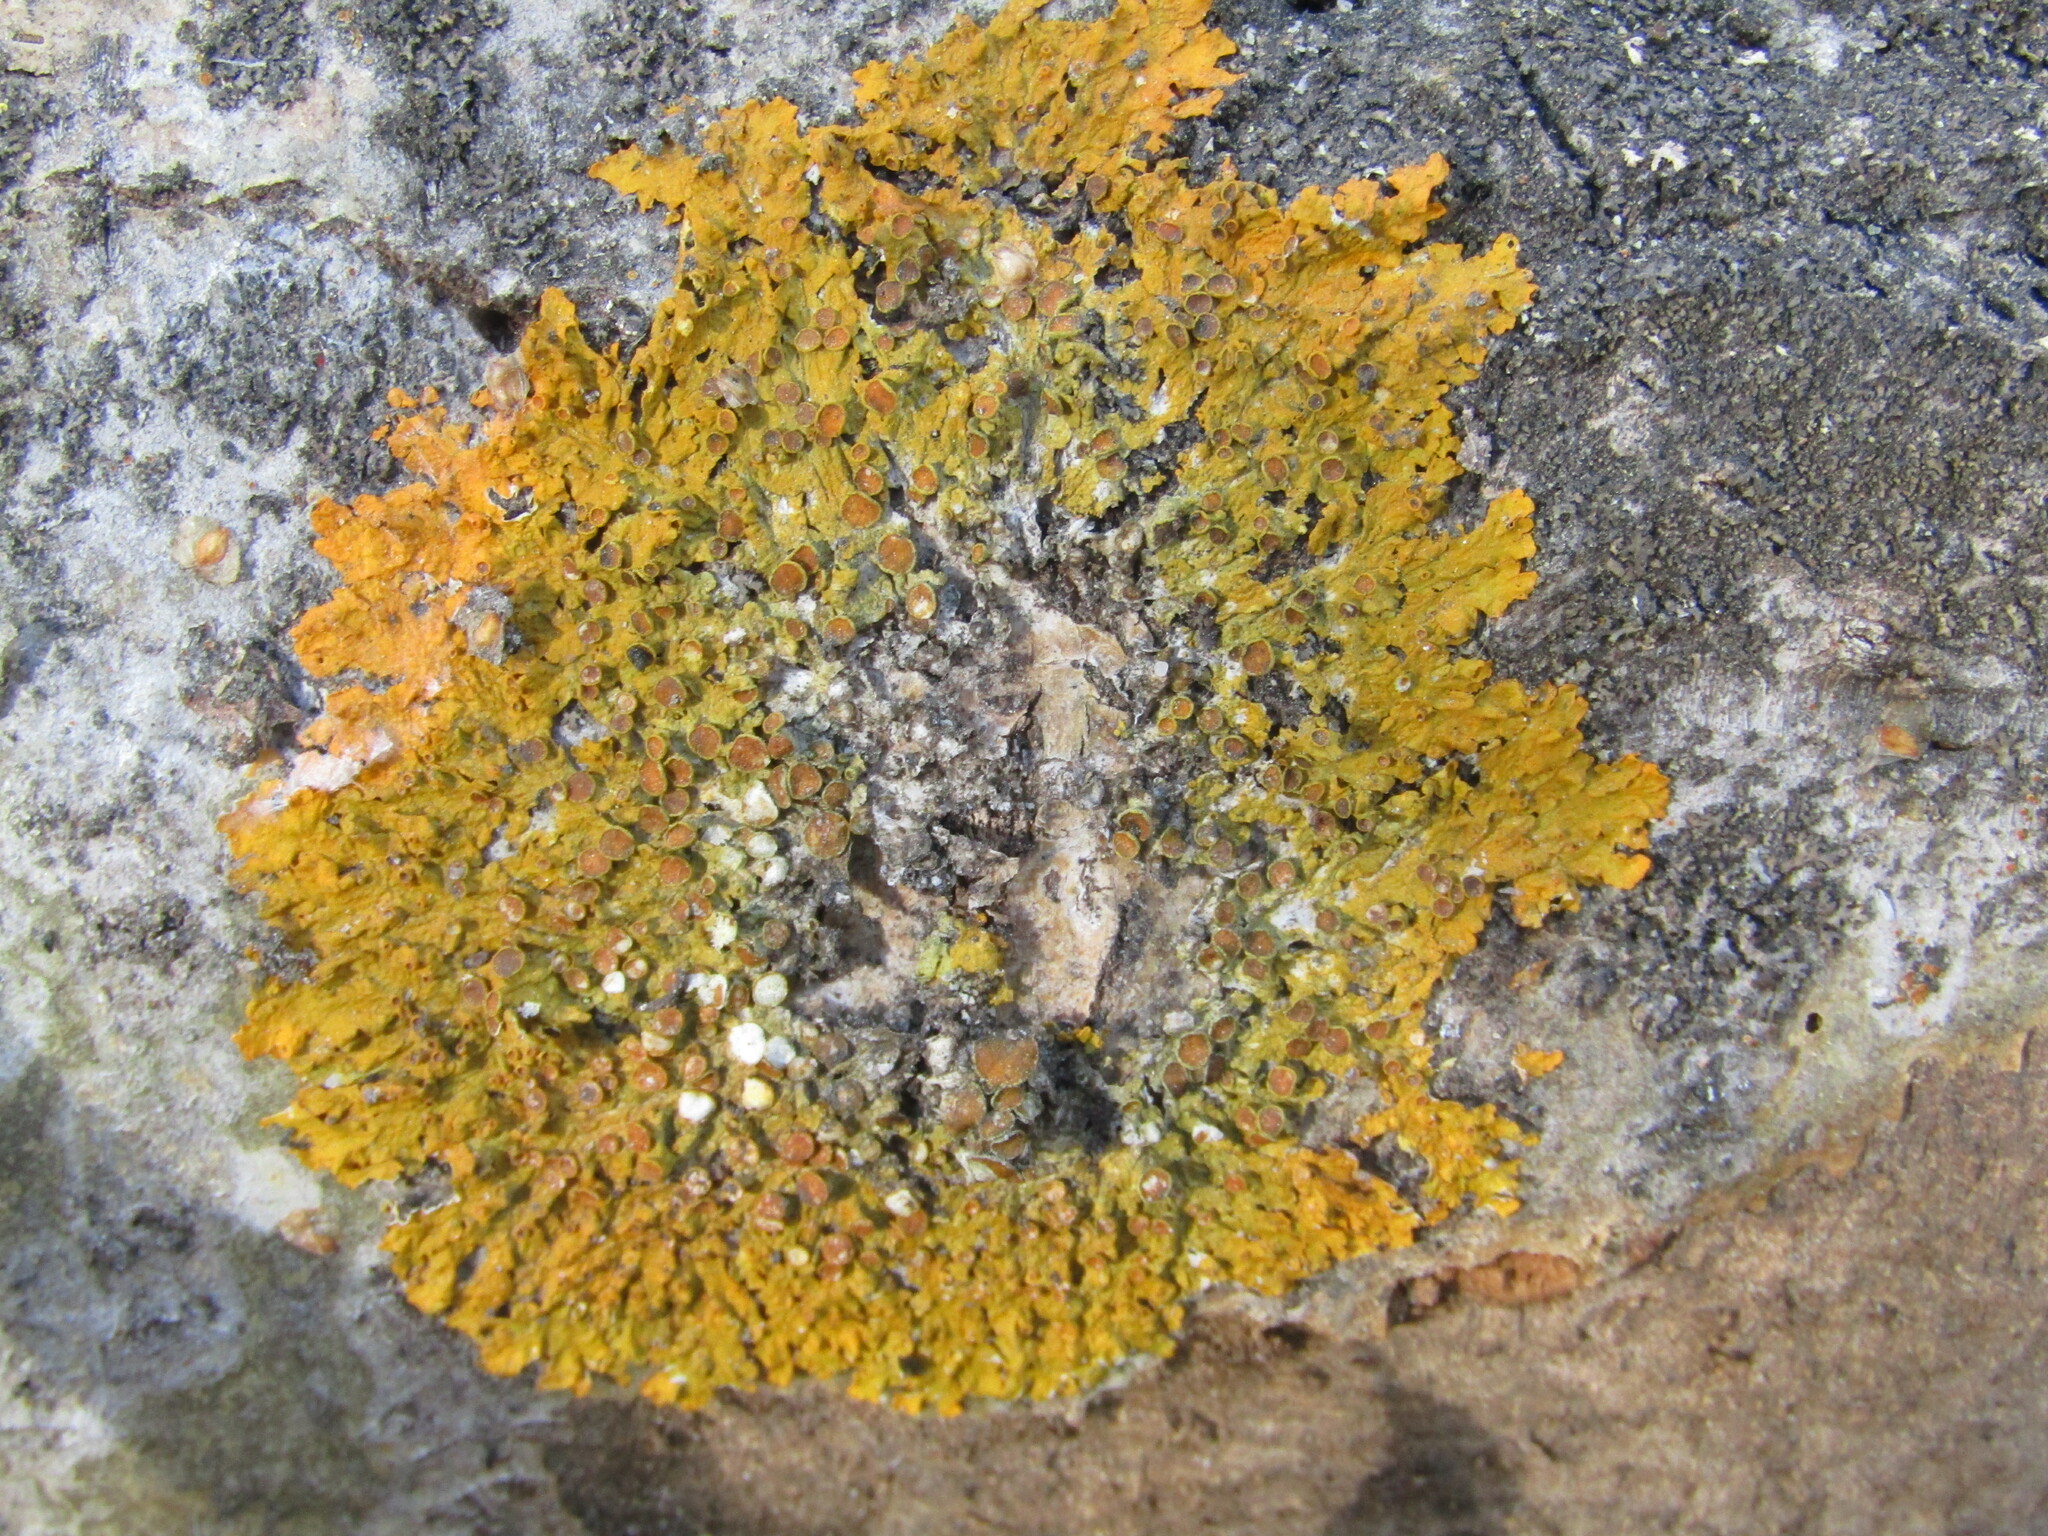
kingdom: Fungi
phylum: Ascomycota
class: Lecanoromycetes
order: Teloschistales
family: Teloschistaceae
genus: Xanthoria
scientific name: Xanthoria parietina
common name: Common orange lichen
